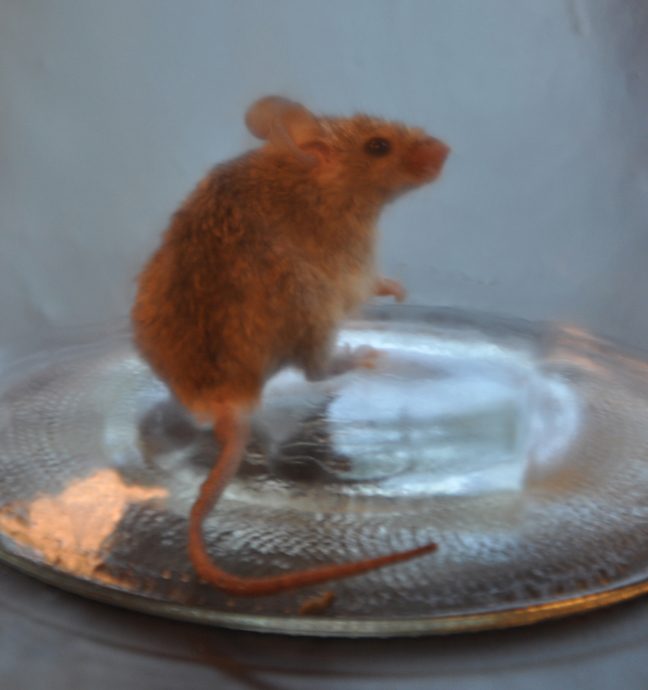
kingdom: Animalia
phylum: Chordata
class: Mammalia
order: Rodentia
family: Muridae
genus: Mus
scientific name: Mus musculus
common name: House mouse
